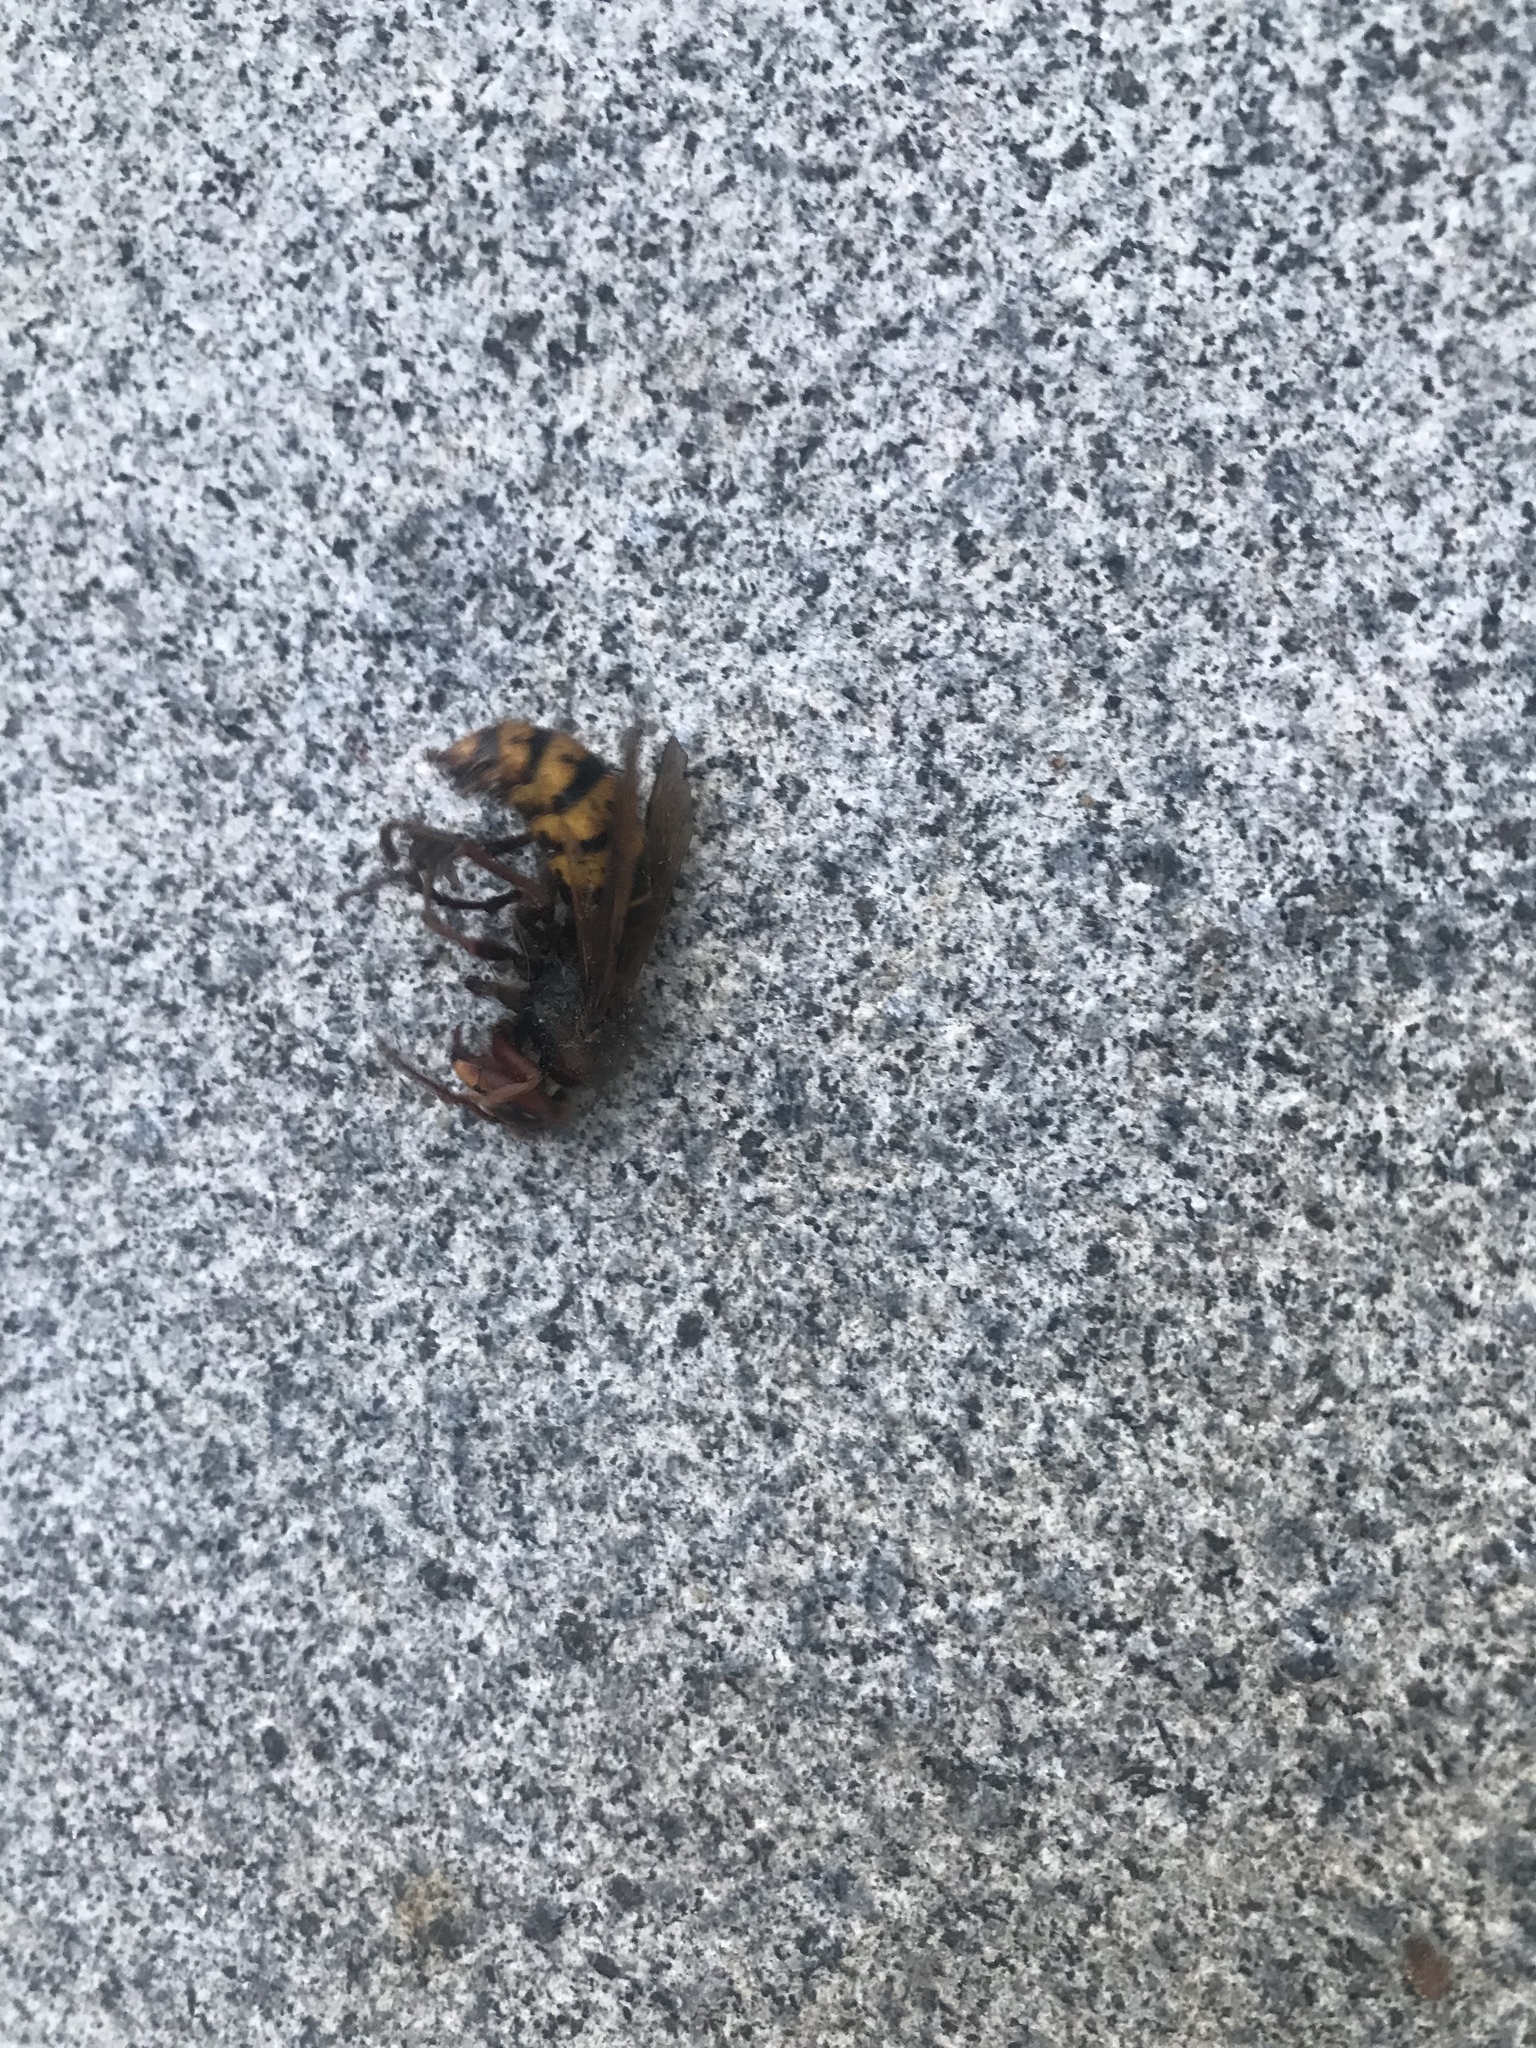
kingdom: Animalia
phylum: Arthropoda
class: Insecta
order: Hymenoptera
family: Vespidae
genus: Vespa
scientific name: Vespa crabro
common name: Hornet
